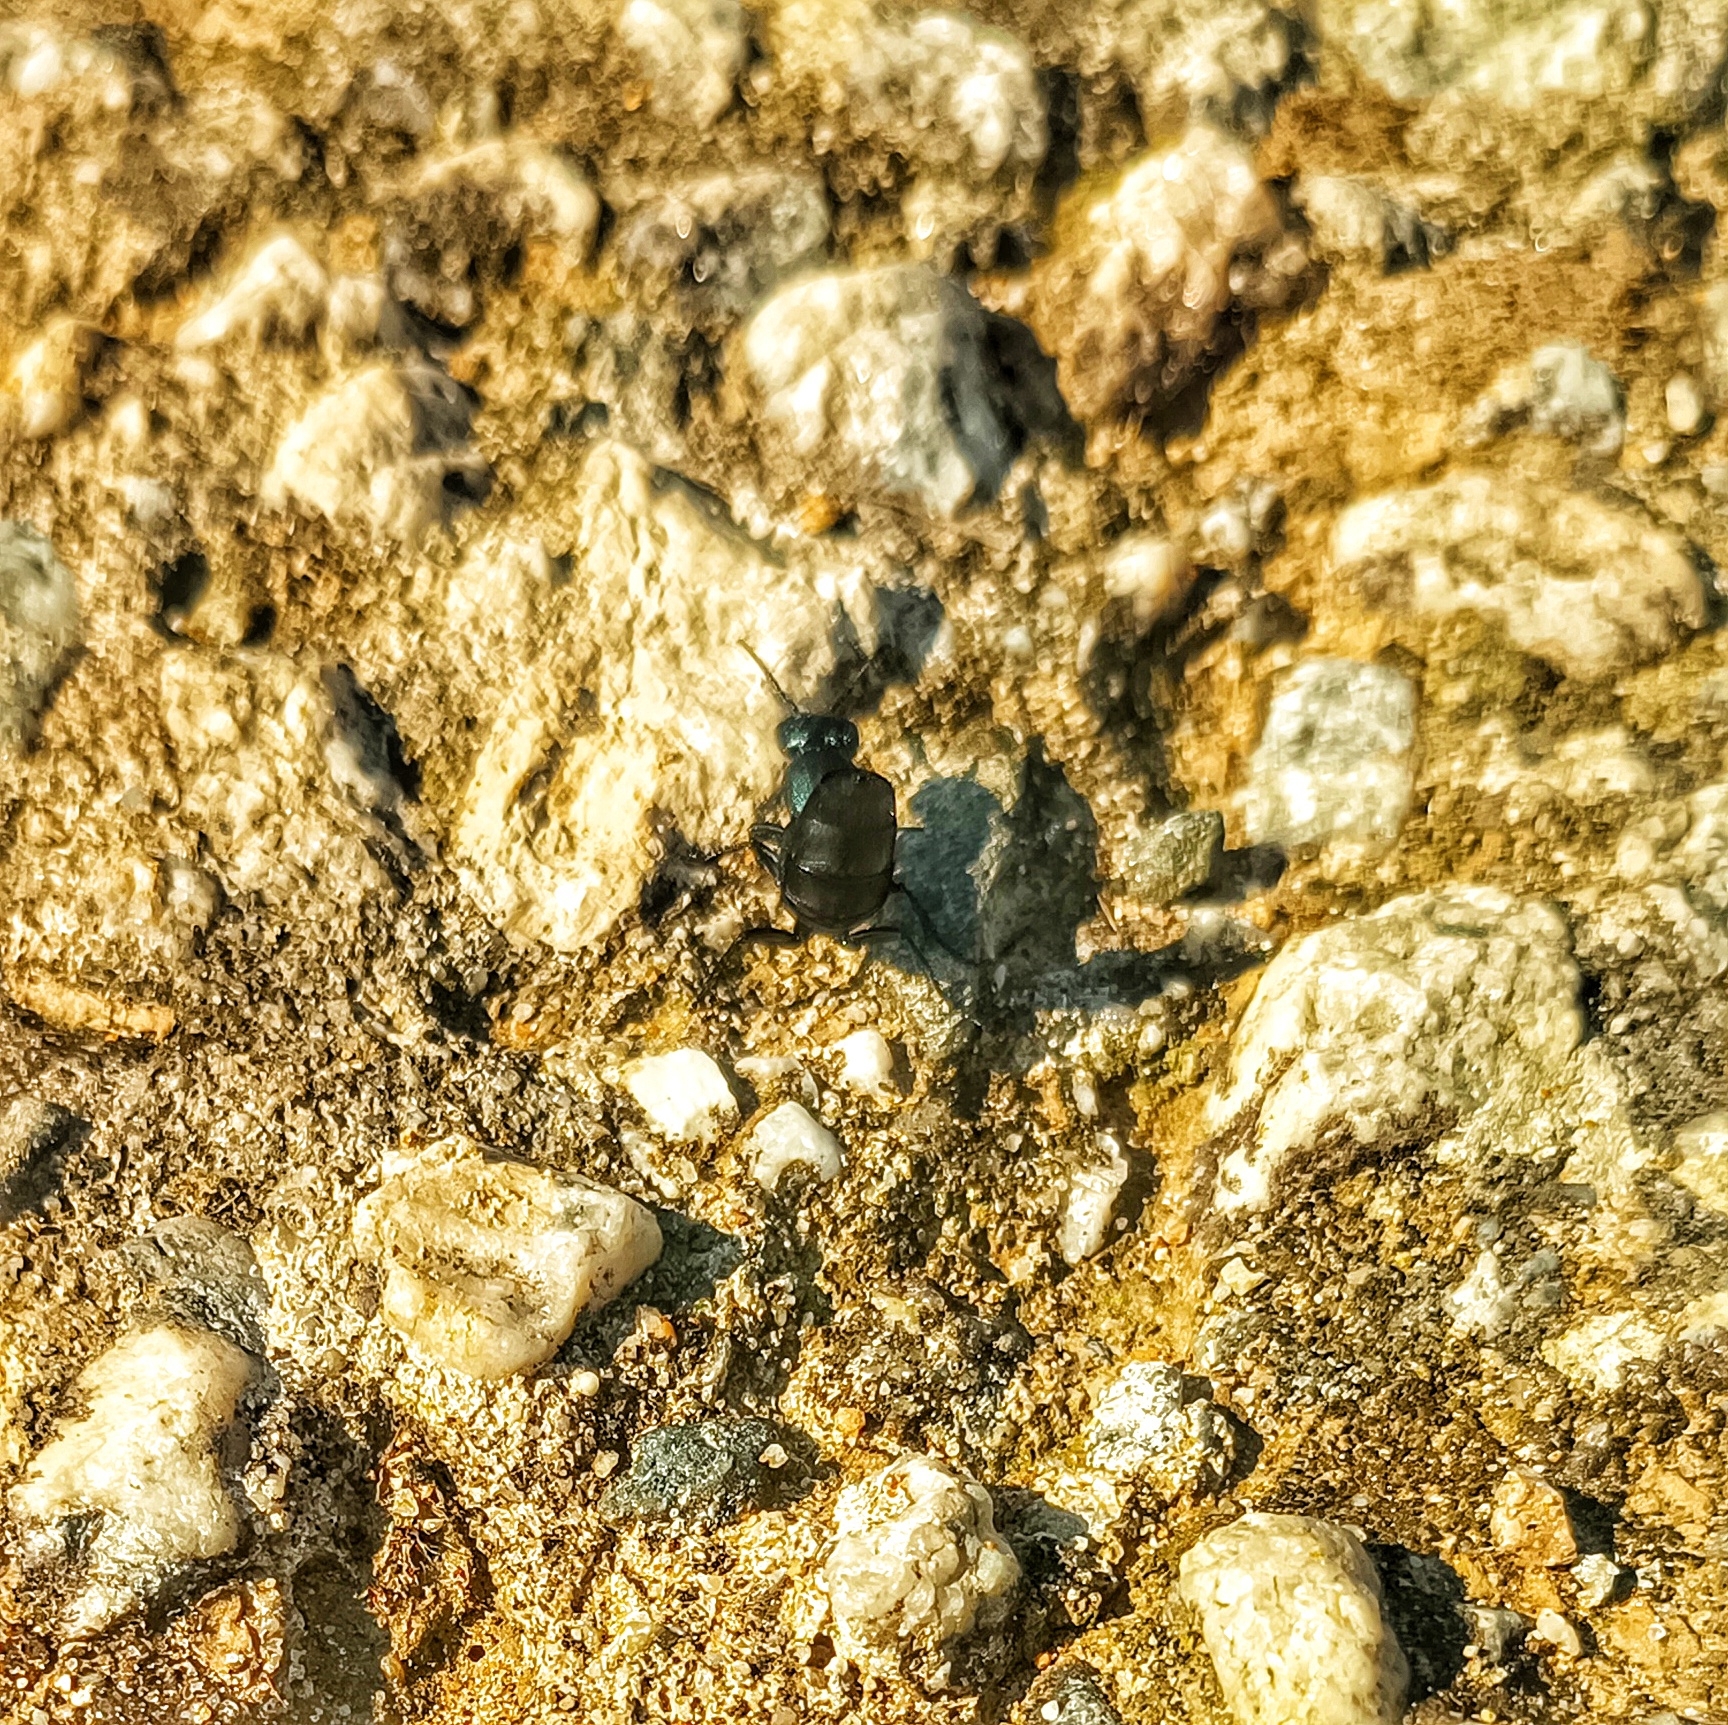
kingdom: Animalia
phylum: Arthropoda
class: Insecta
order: Coleoptera
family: Staphylinidae
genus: Ocypus
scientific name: Ocypus ophthalmicus
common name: Blue rove-beetle
